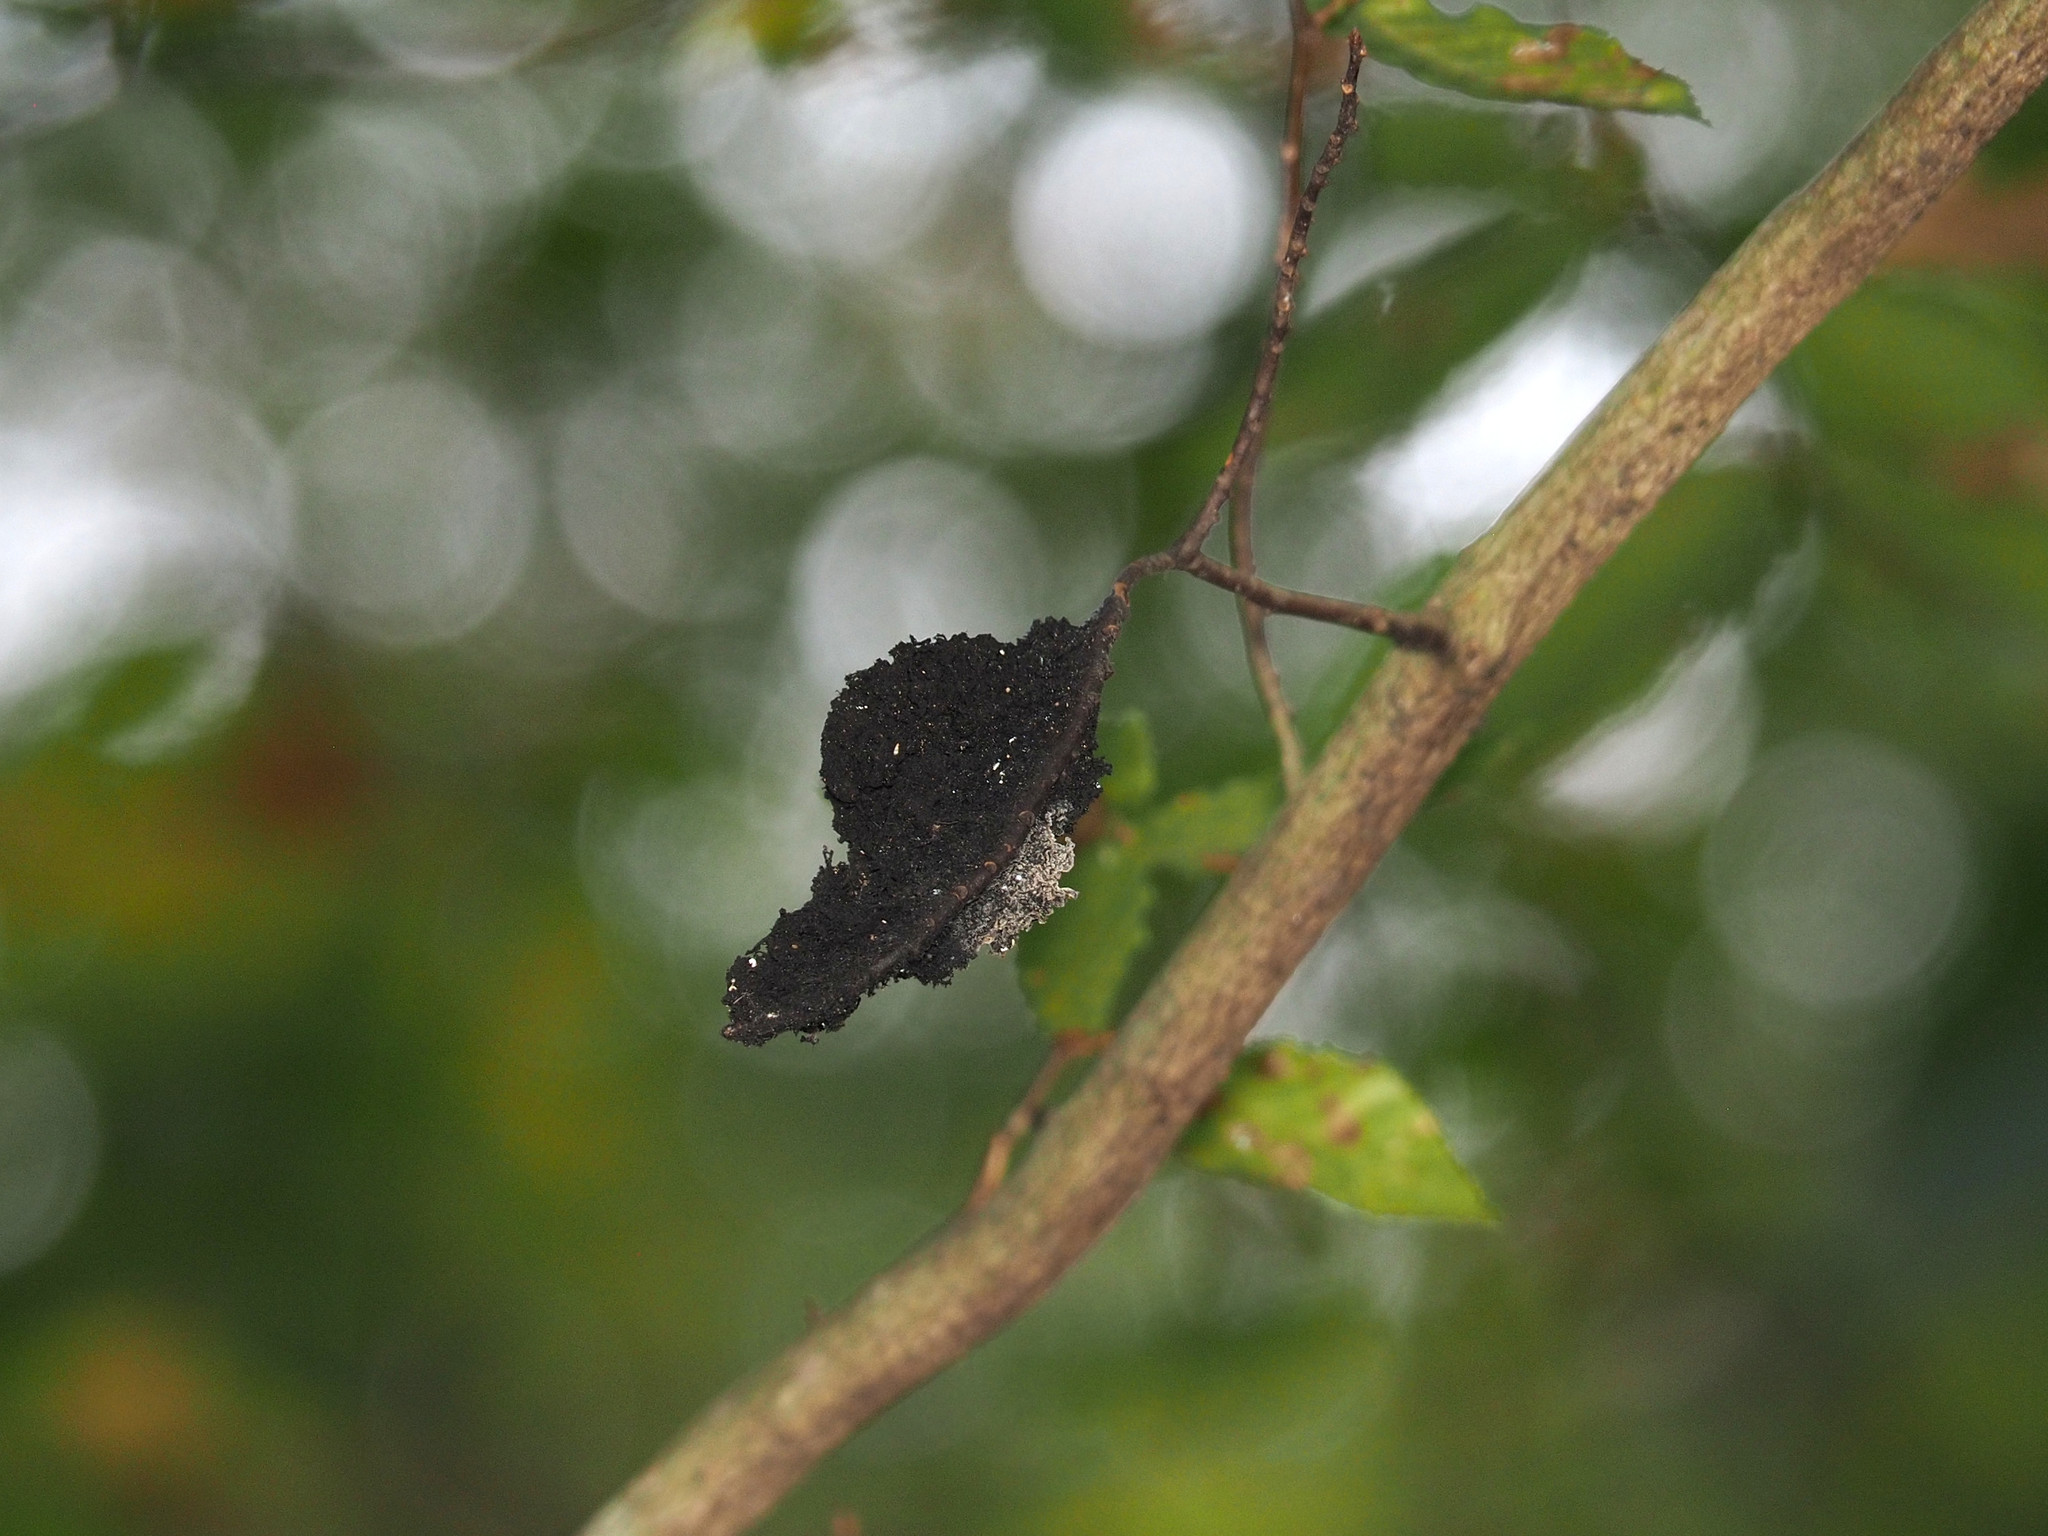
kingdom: Fungi
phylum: Ascomycota
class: Dothideomycetes
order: Capnodiales
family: Capnodiaceae
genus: Scorias
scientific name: Scorias spongiosa
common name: Black sooty mold
